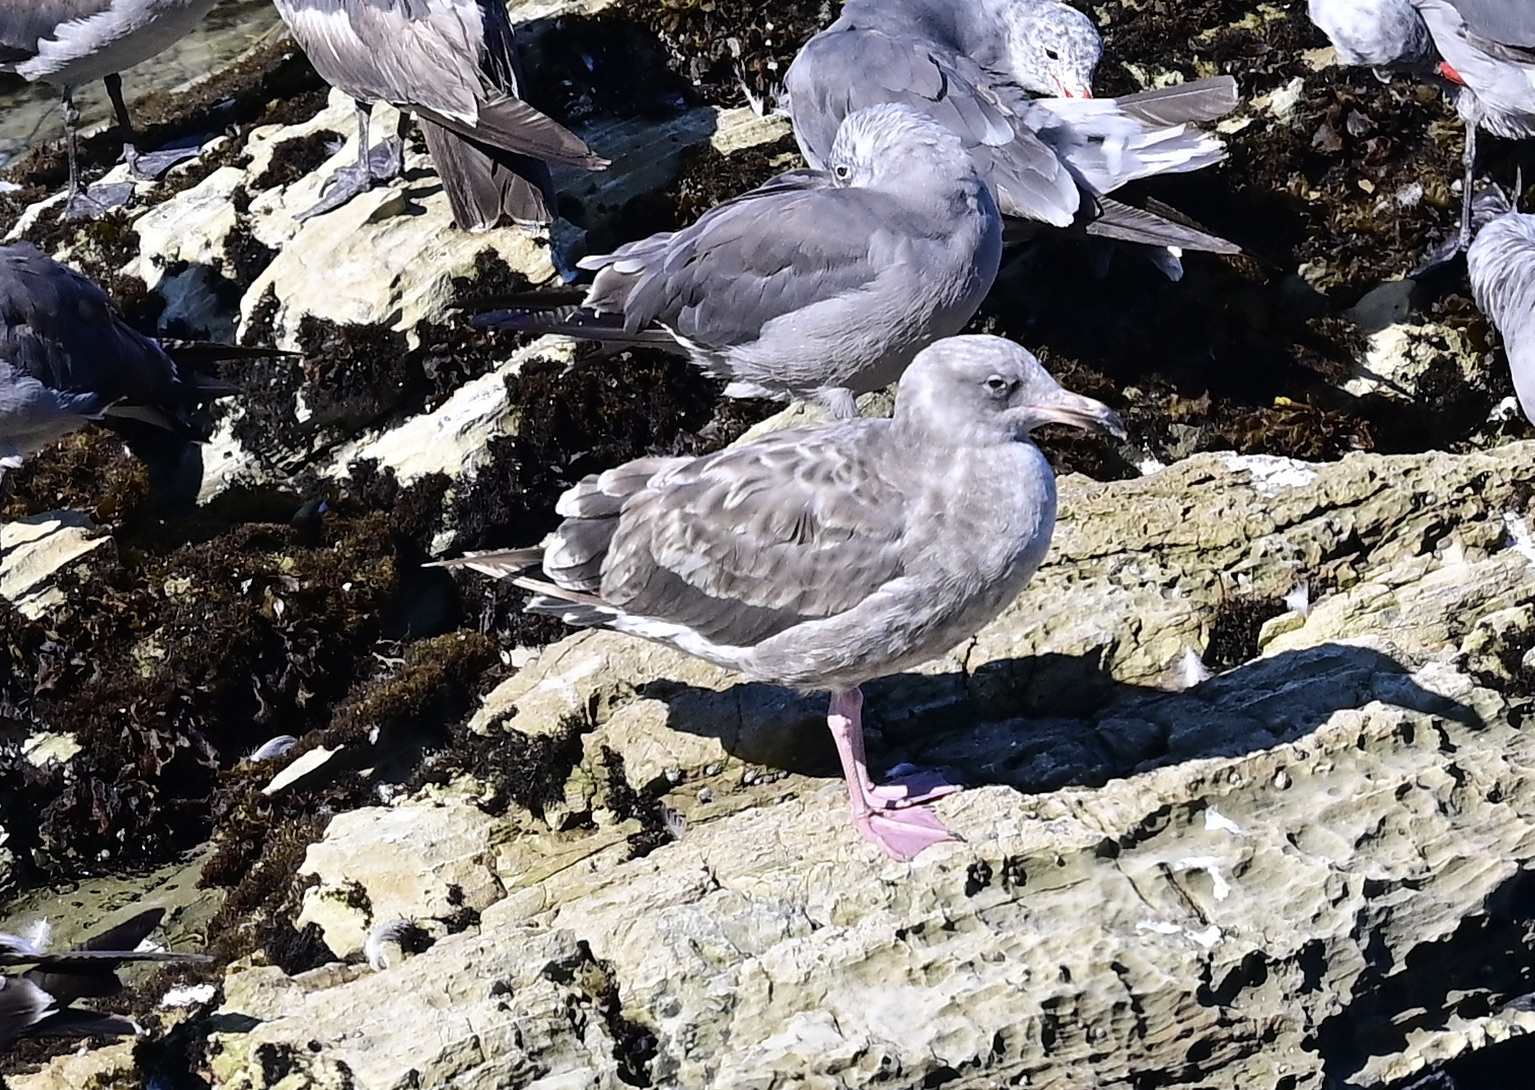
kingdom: Animalia
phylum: Chordata
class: Aves
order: Charadriiformes
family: Laridae
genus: Larus
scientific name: Larus occidentalis
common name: Western gull
